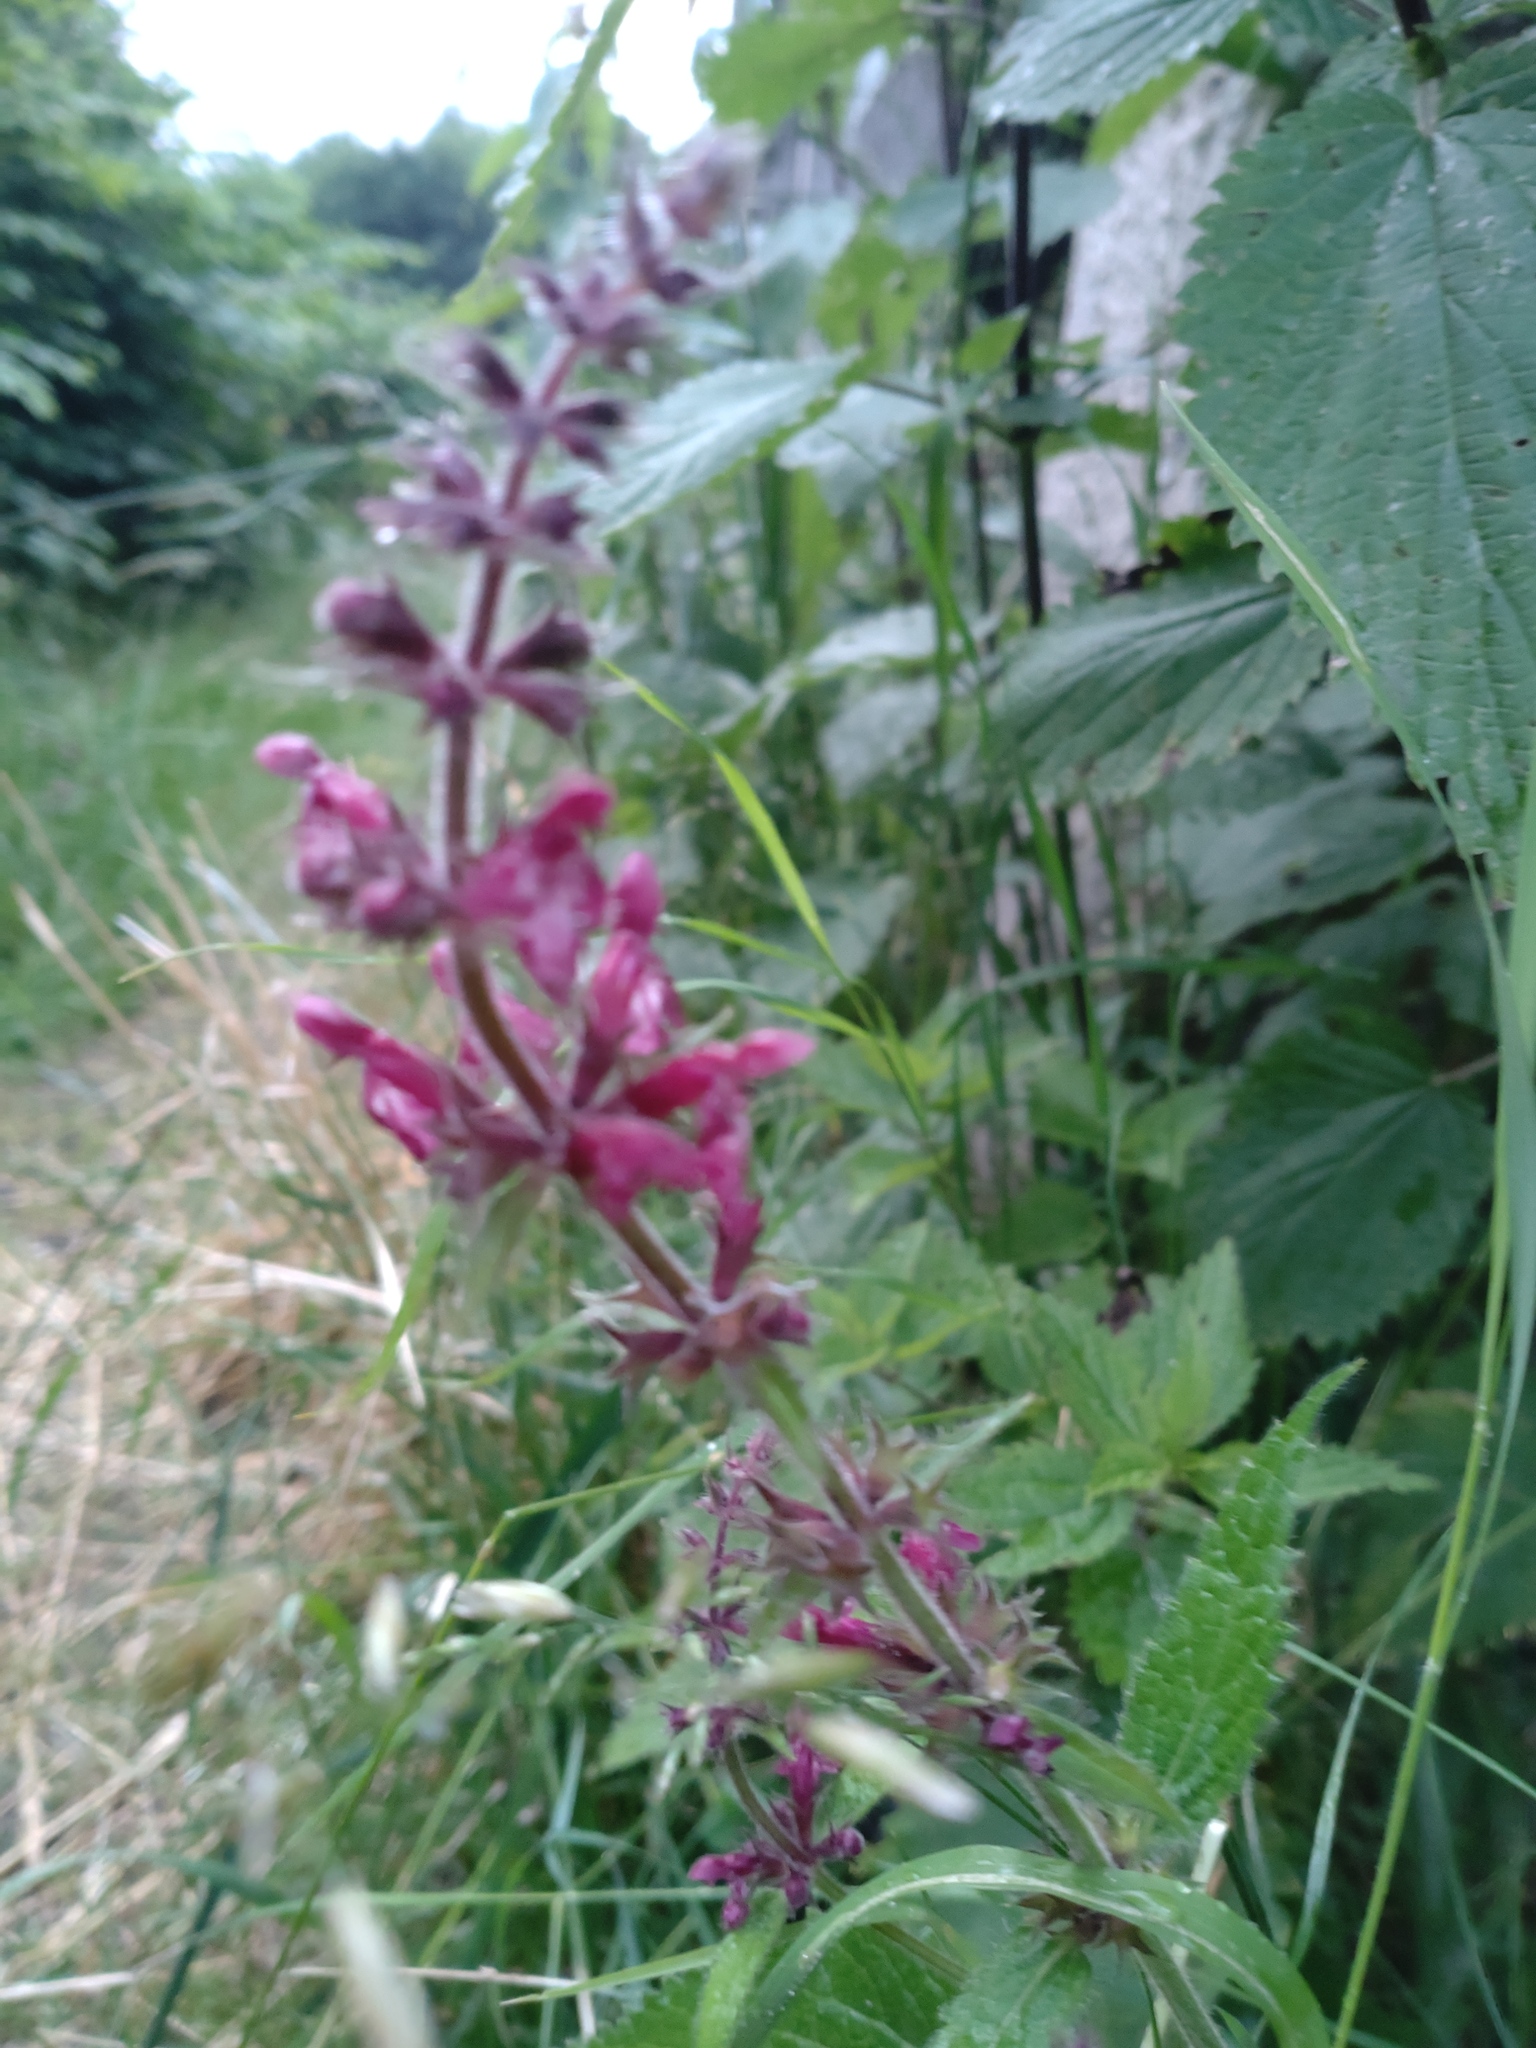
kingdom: Plantae
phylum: Tracheophyta
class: Magnoliopsida
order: Lamiales
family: Lamiaceae
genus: Stachys
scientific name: Stachys sylvatica
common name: Hedge woundwort
